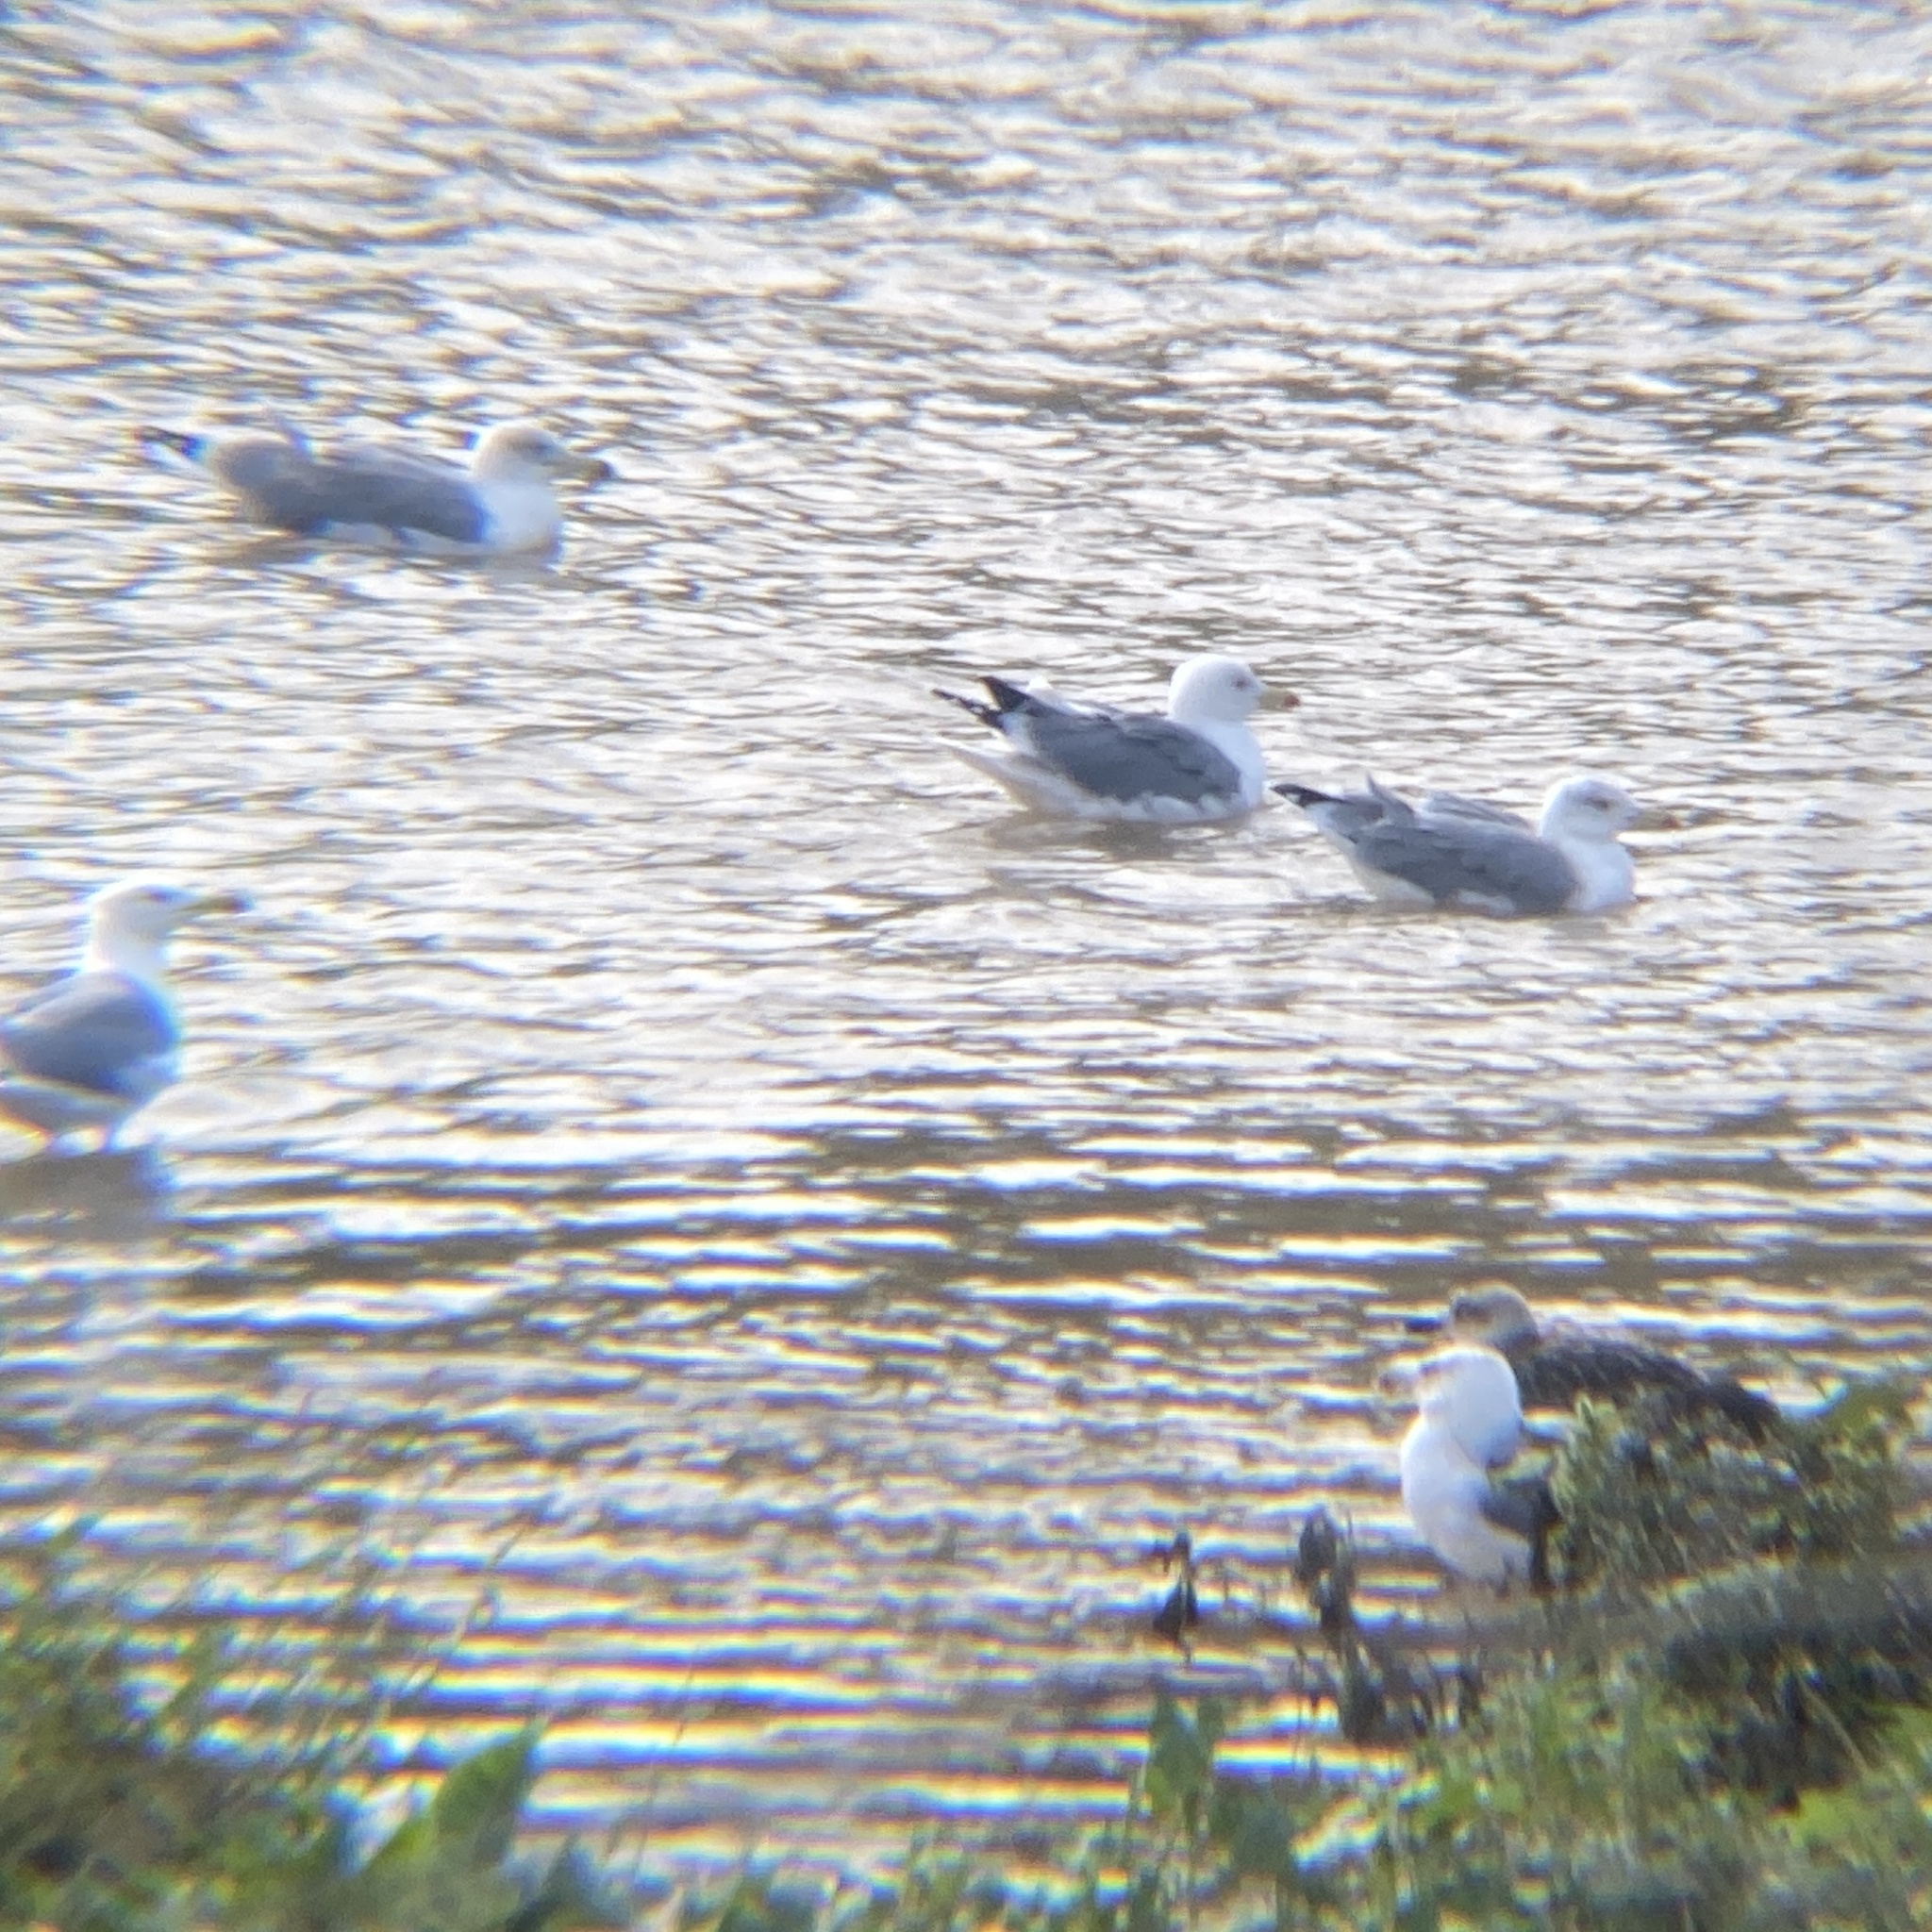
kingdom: Animalia
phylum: Chordata
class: Aves
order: Charadriiformes
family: Laridae
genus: Larus
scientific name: Larus michahellis
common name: Yellow-legged gull
